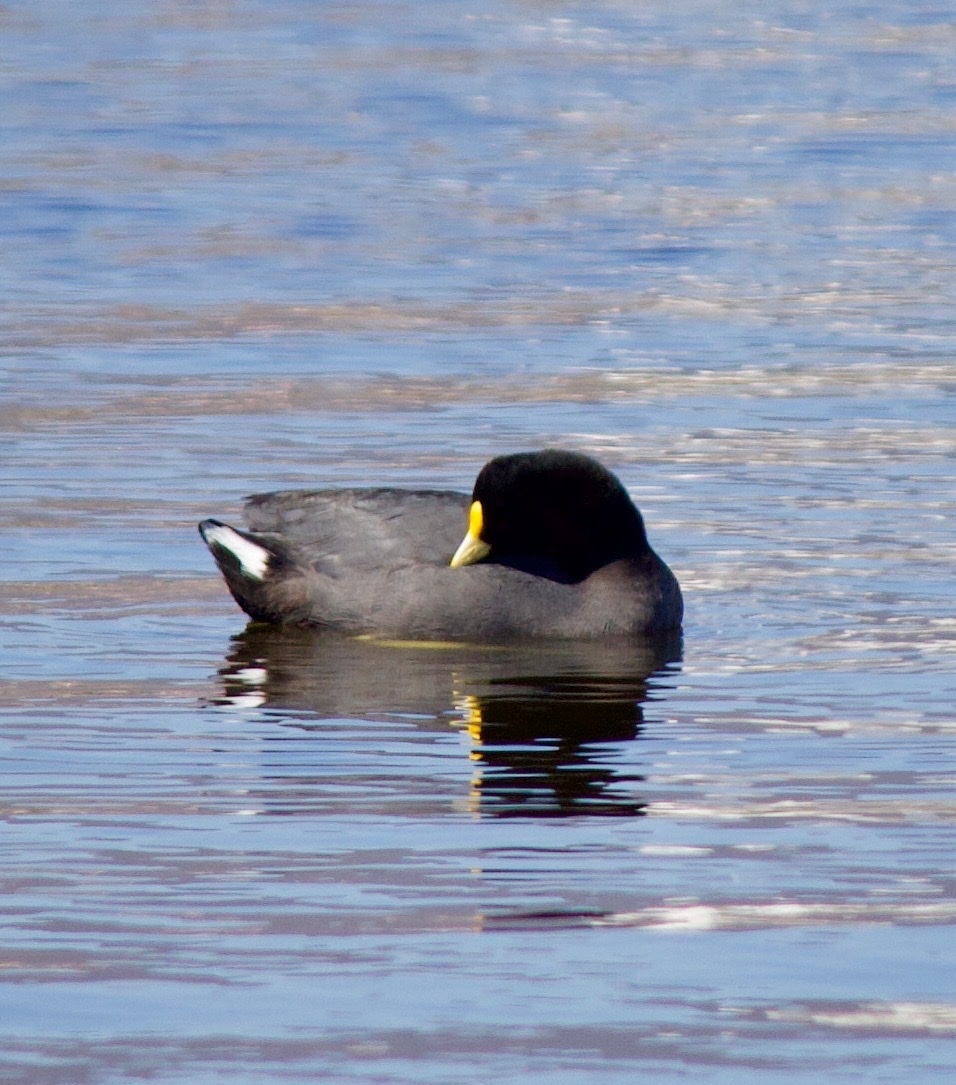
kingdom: Animalia
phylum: Chordata
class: Aves
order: Gruiformes
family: Rallidae
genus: Fulica
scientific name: Fulica leucoptera
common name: White-winged coot
